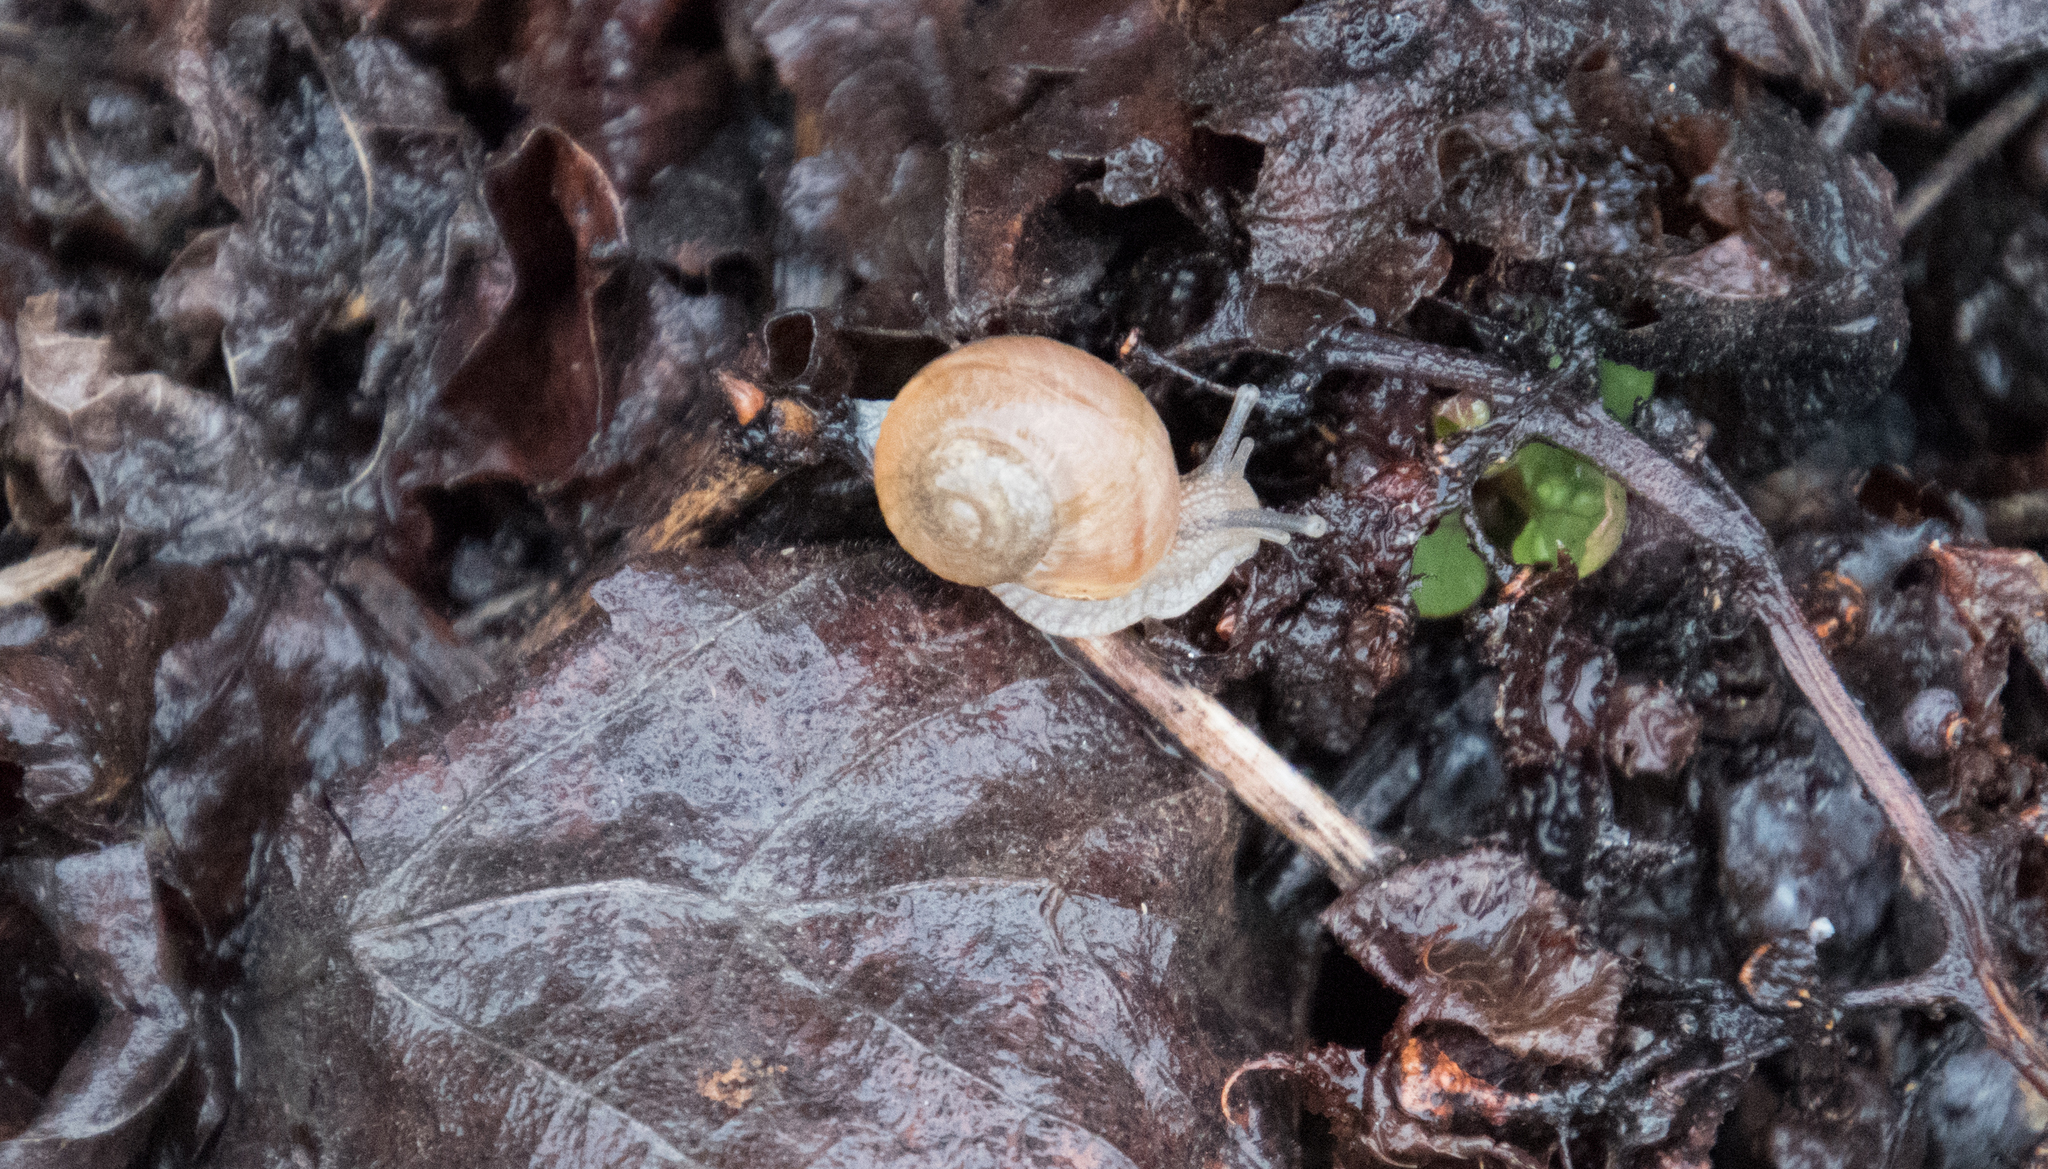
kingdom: Animalia
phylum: Mollusca
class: Gastropoda
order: Stylommatophora
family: Helicidae
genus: Helix
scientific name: Helix pomatia
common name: Roman snail
